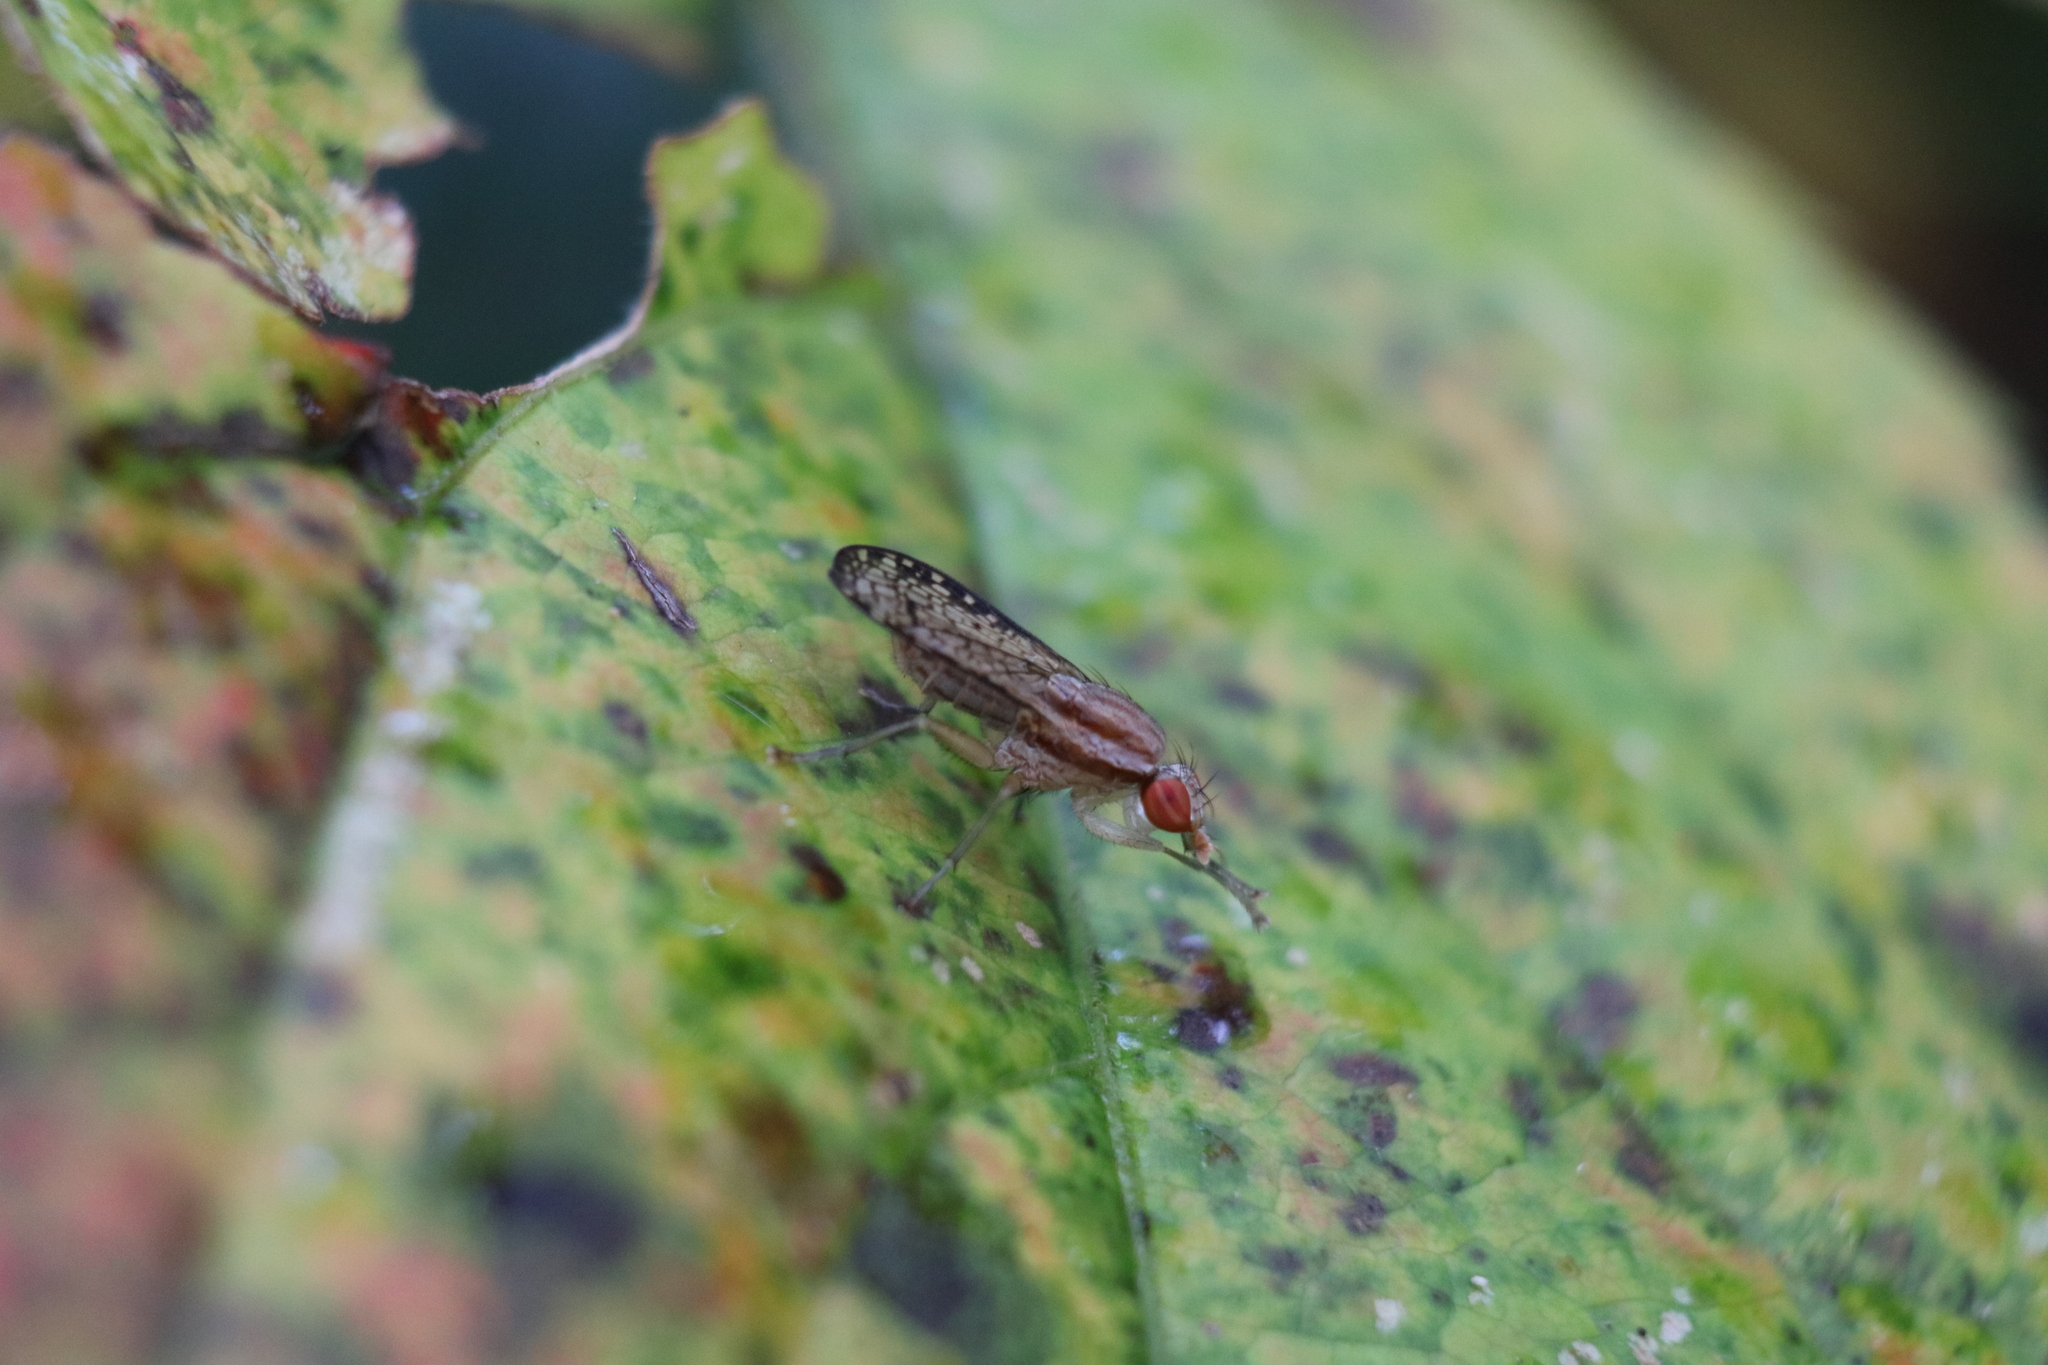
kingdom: Animalia
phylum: Arthropoda
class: Insecta
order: Diptera
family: Sciomyzidae
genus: Trypetoptera
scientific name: Trypetoptera canadensis
